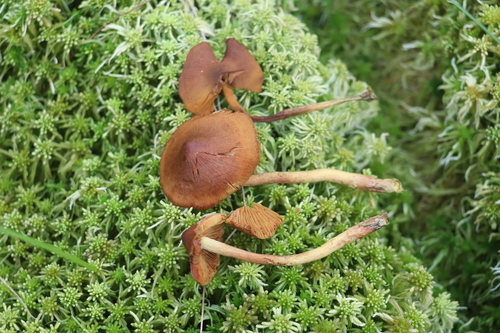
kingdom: Fungi
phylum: Basidiomycota
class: Agaricomycetes
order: Agaricales
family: Cortinariaceae
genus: Cortinarius
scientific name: Cortinarius tubarius
